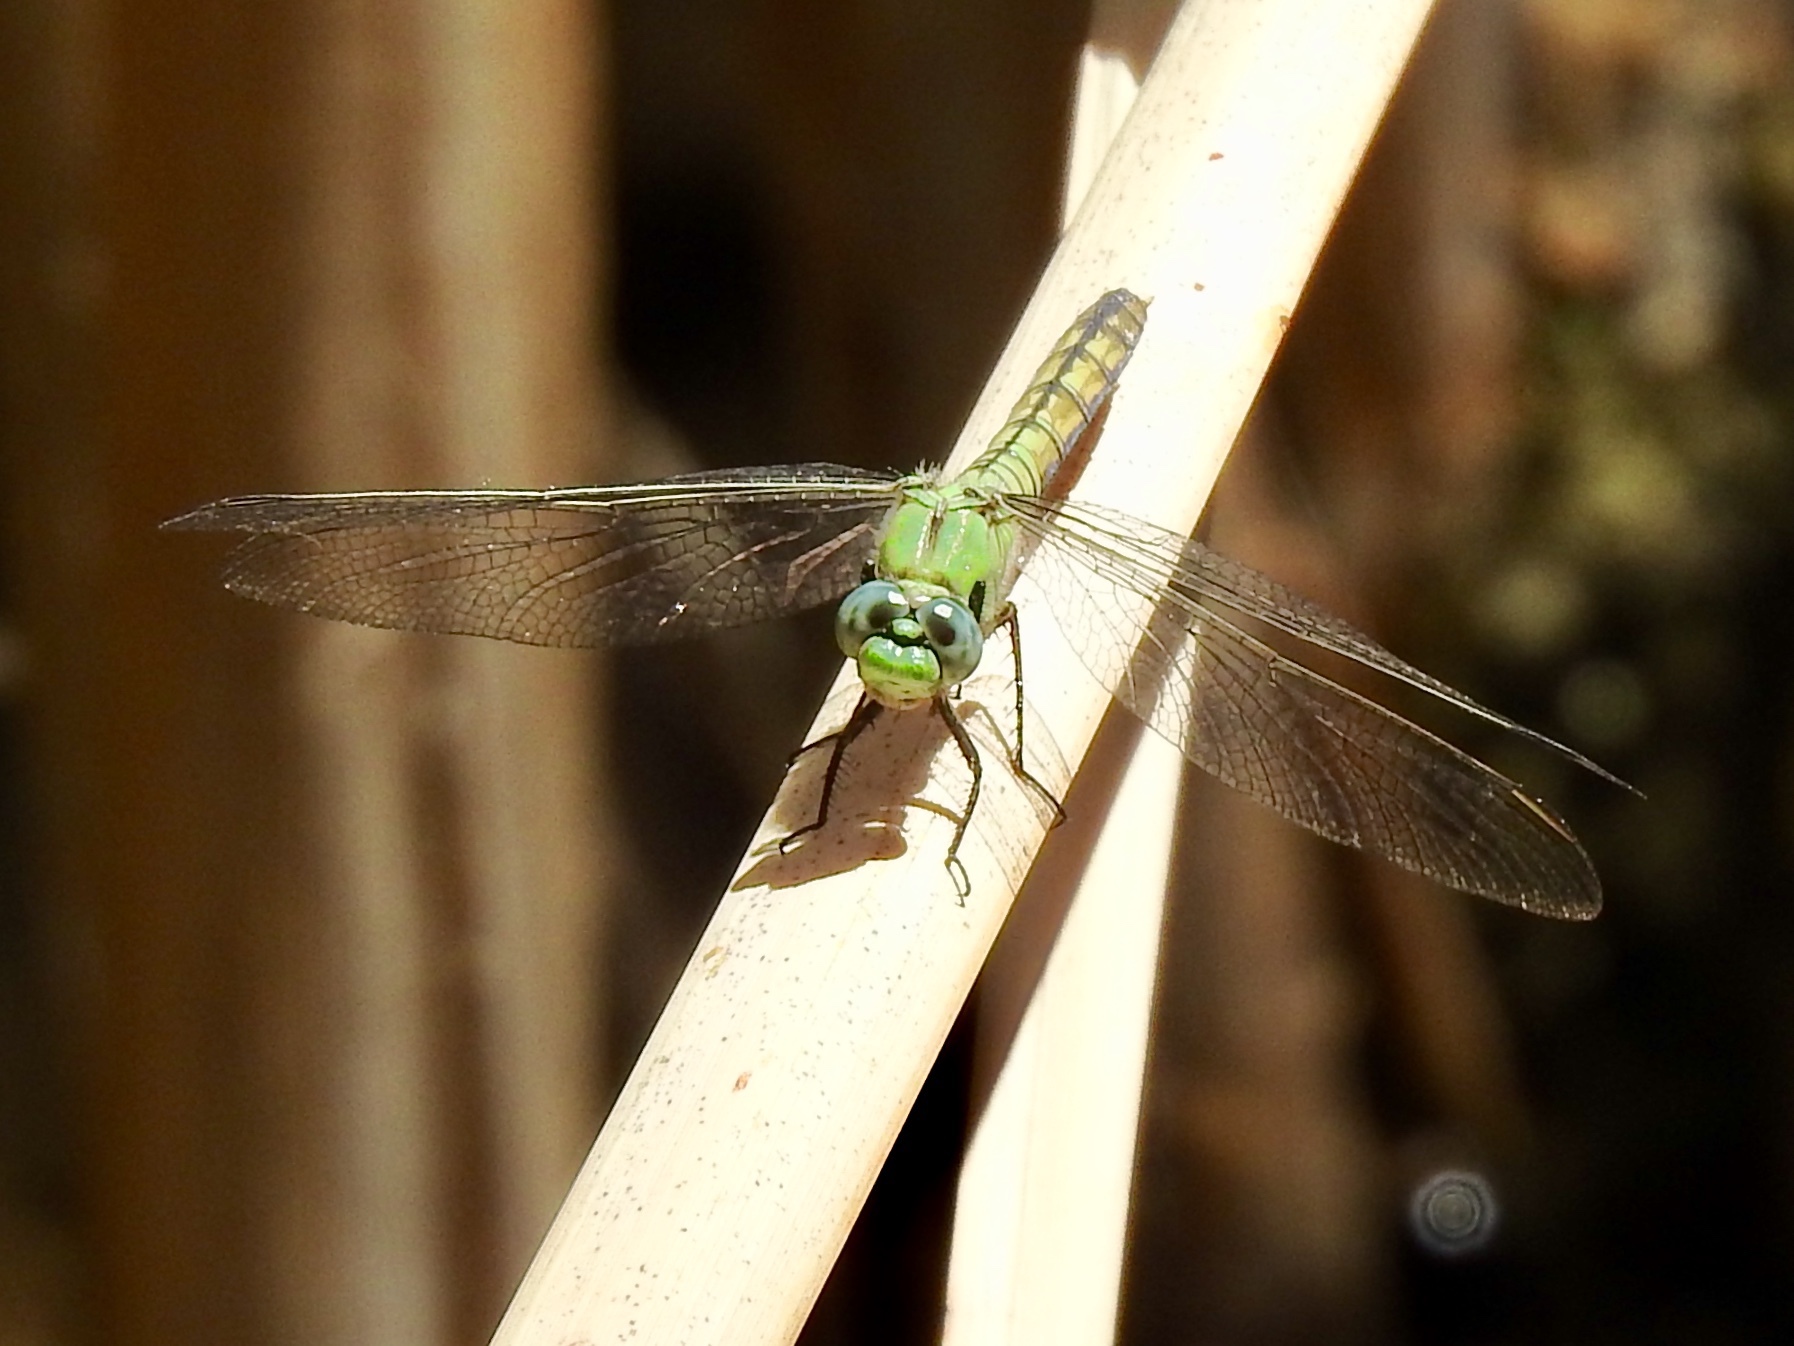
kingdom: Animalia
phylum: Arthropoda
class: Insecta
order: Odonata
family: Libellulidae
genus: Erythemis
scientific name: Erythemis collocata
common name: Western pondhawk
